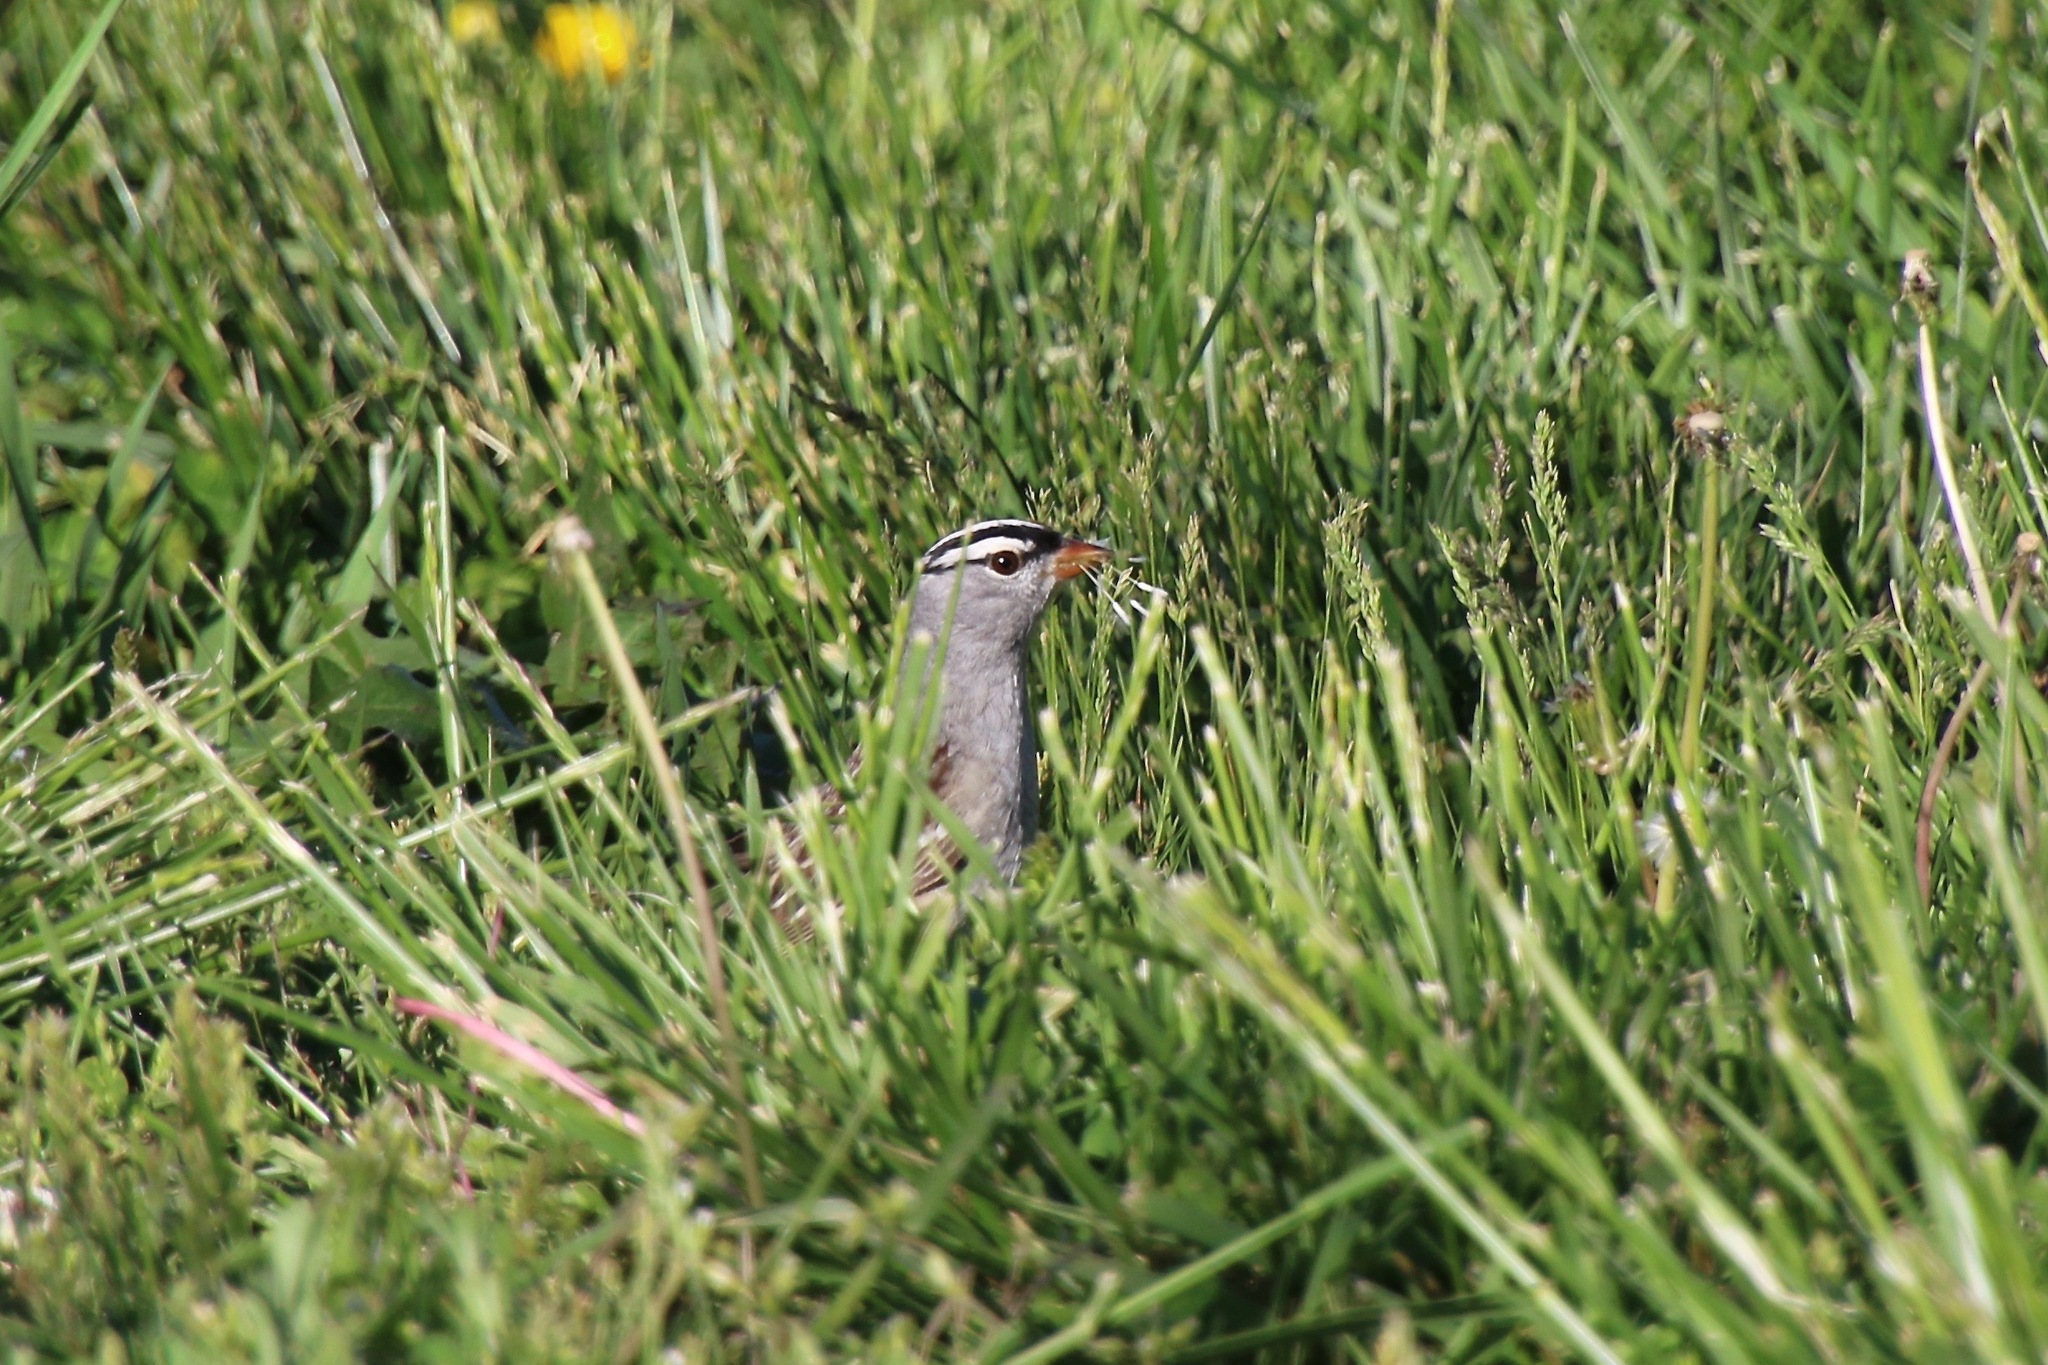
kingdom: Animalia
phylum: Chordata
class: Aves
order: Passeriformes
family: Passerellidae
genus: Zonotrichia
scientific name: Zonotrichia leucophrys
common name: White-crowned sparrow
